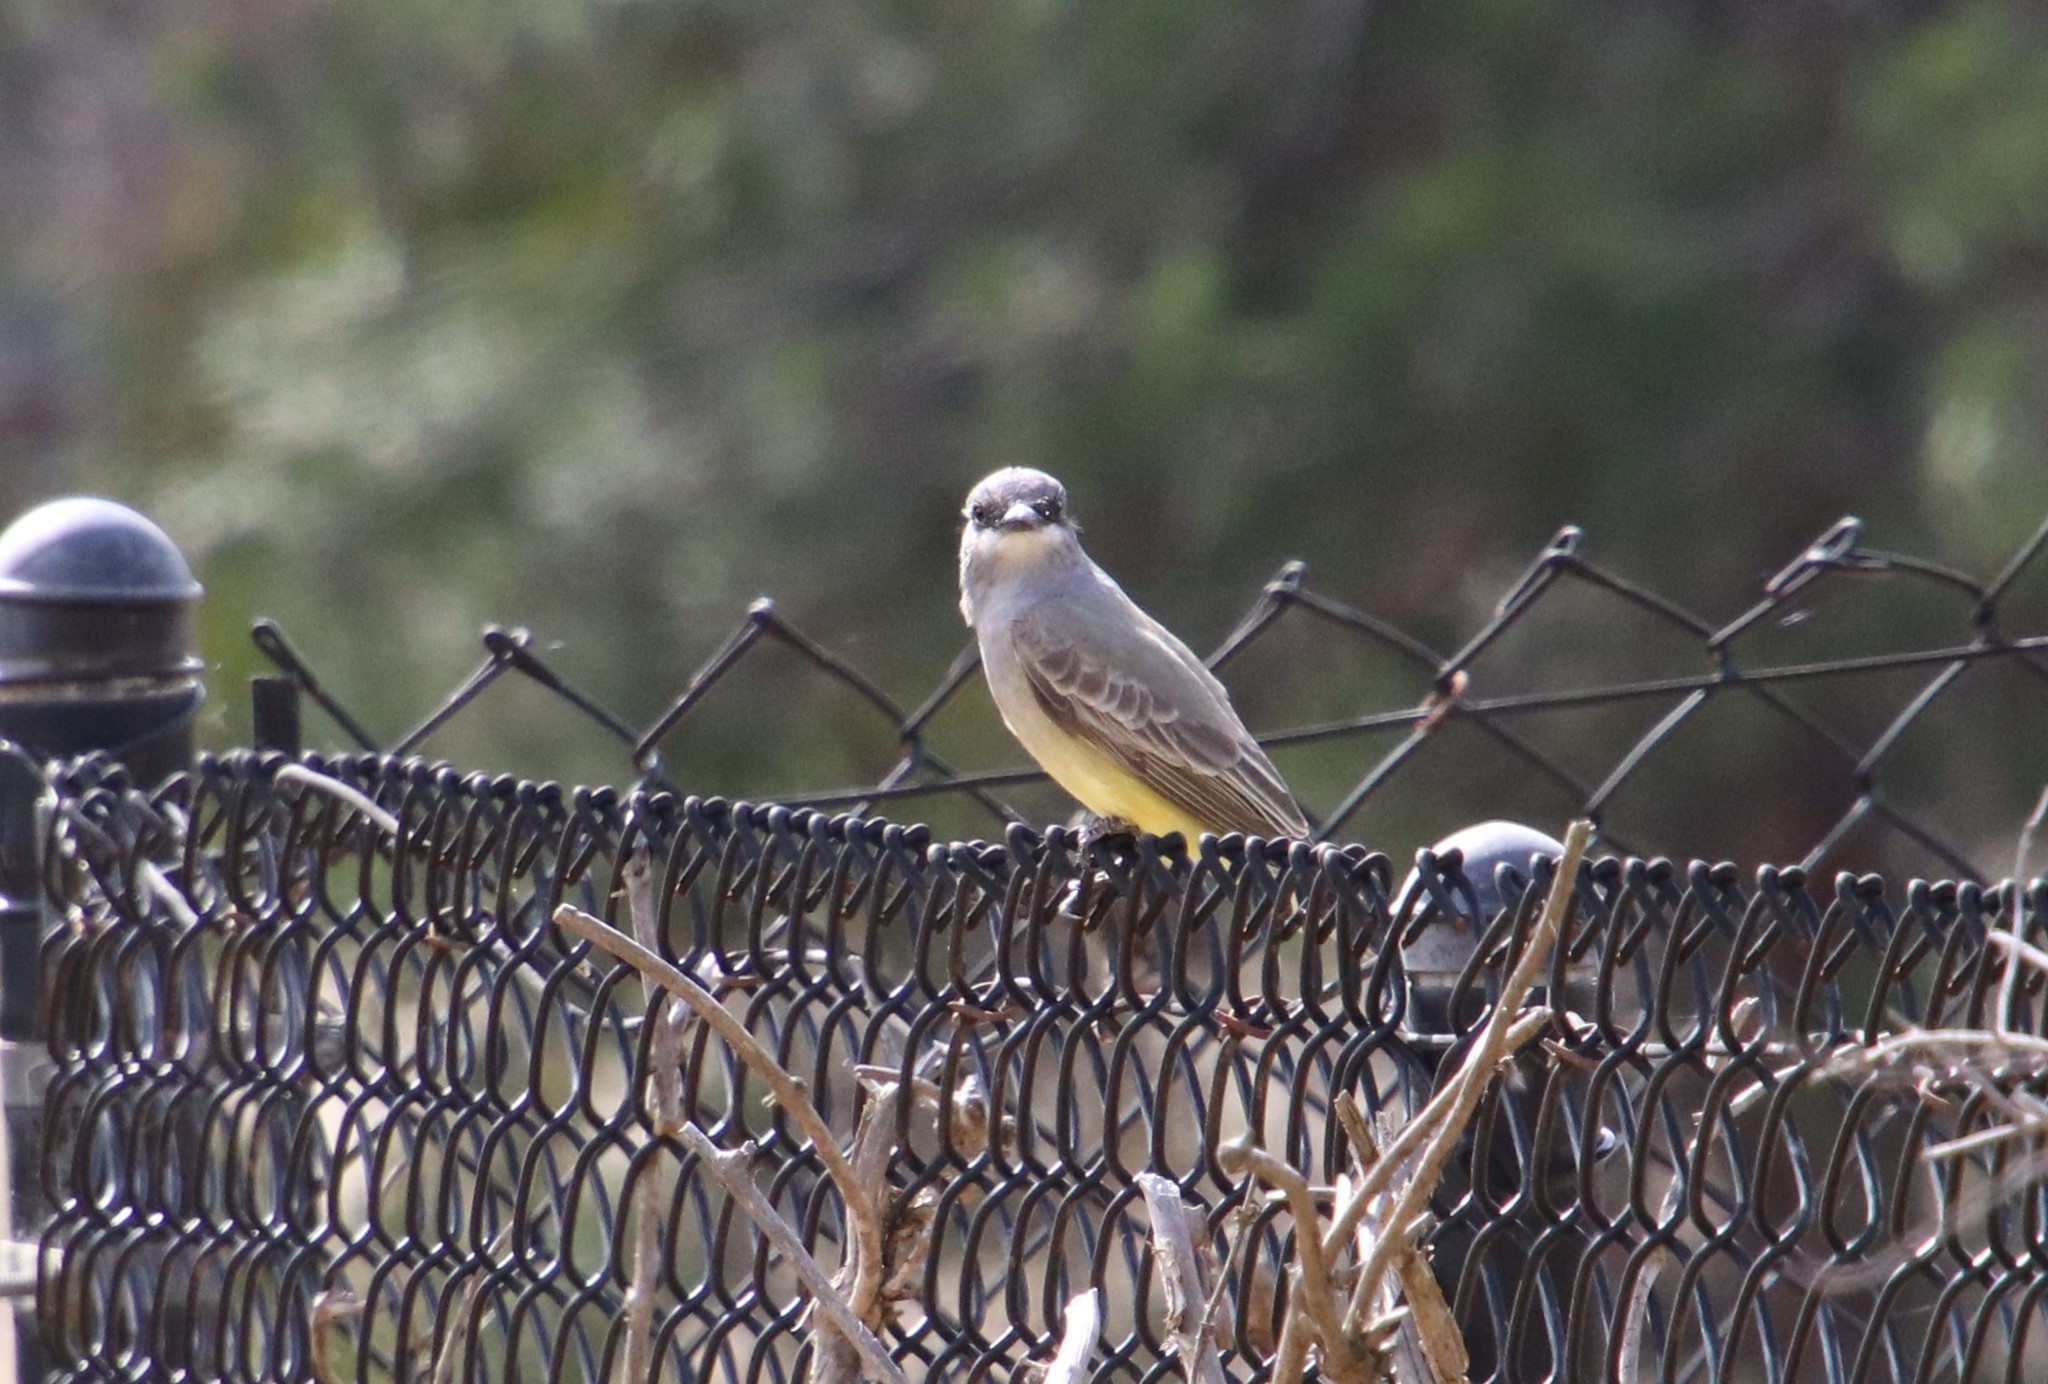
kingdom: Animalia
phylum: Chordata
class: Aves
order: Passeriformes
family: Tyrannidae
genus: Tyrannus
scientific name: Tyrannus vociferans
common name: Cassin's kingbird
